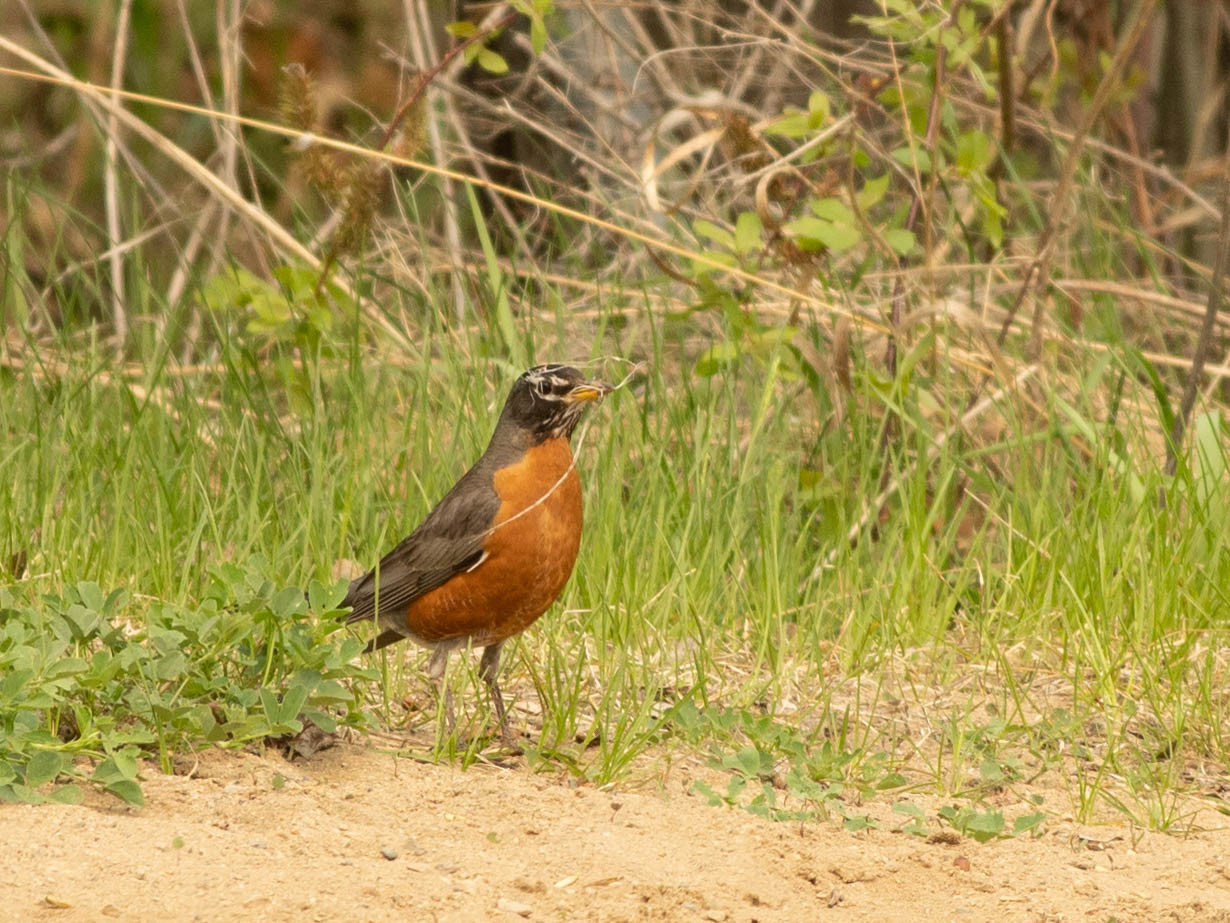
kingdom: Animalia
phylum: Chordata
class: Aves
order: Passeriformes
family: Turdidae
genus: Turdus
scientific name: Turdus migratorius
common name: American robin
